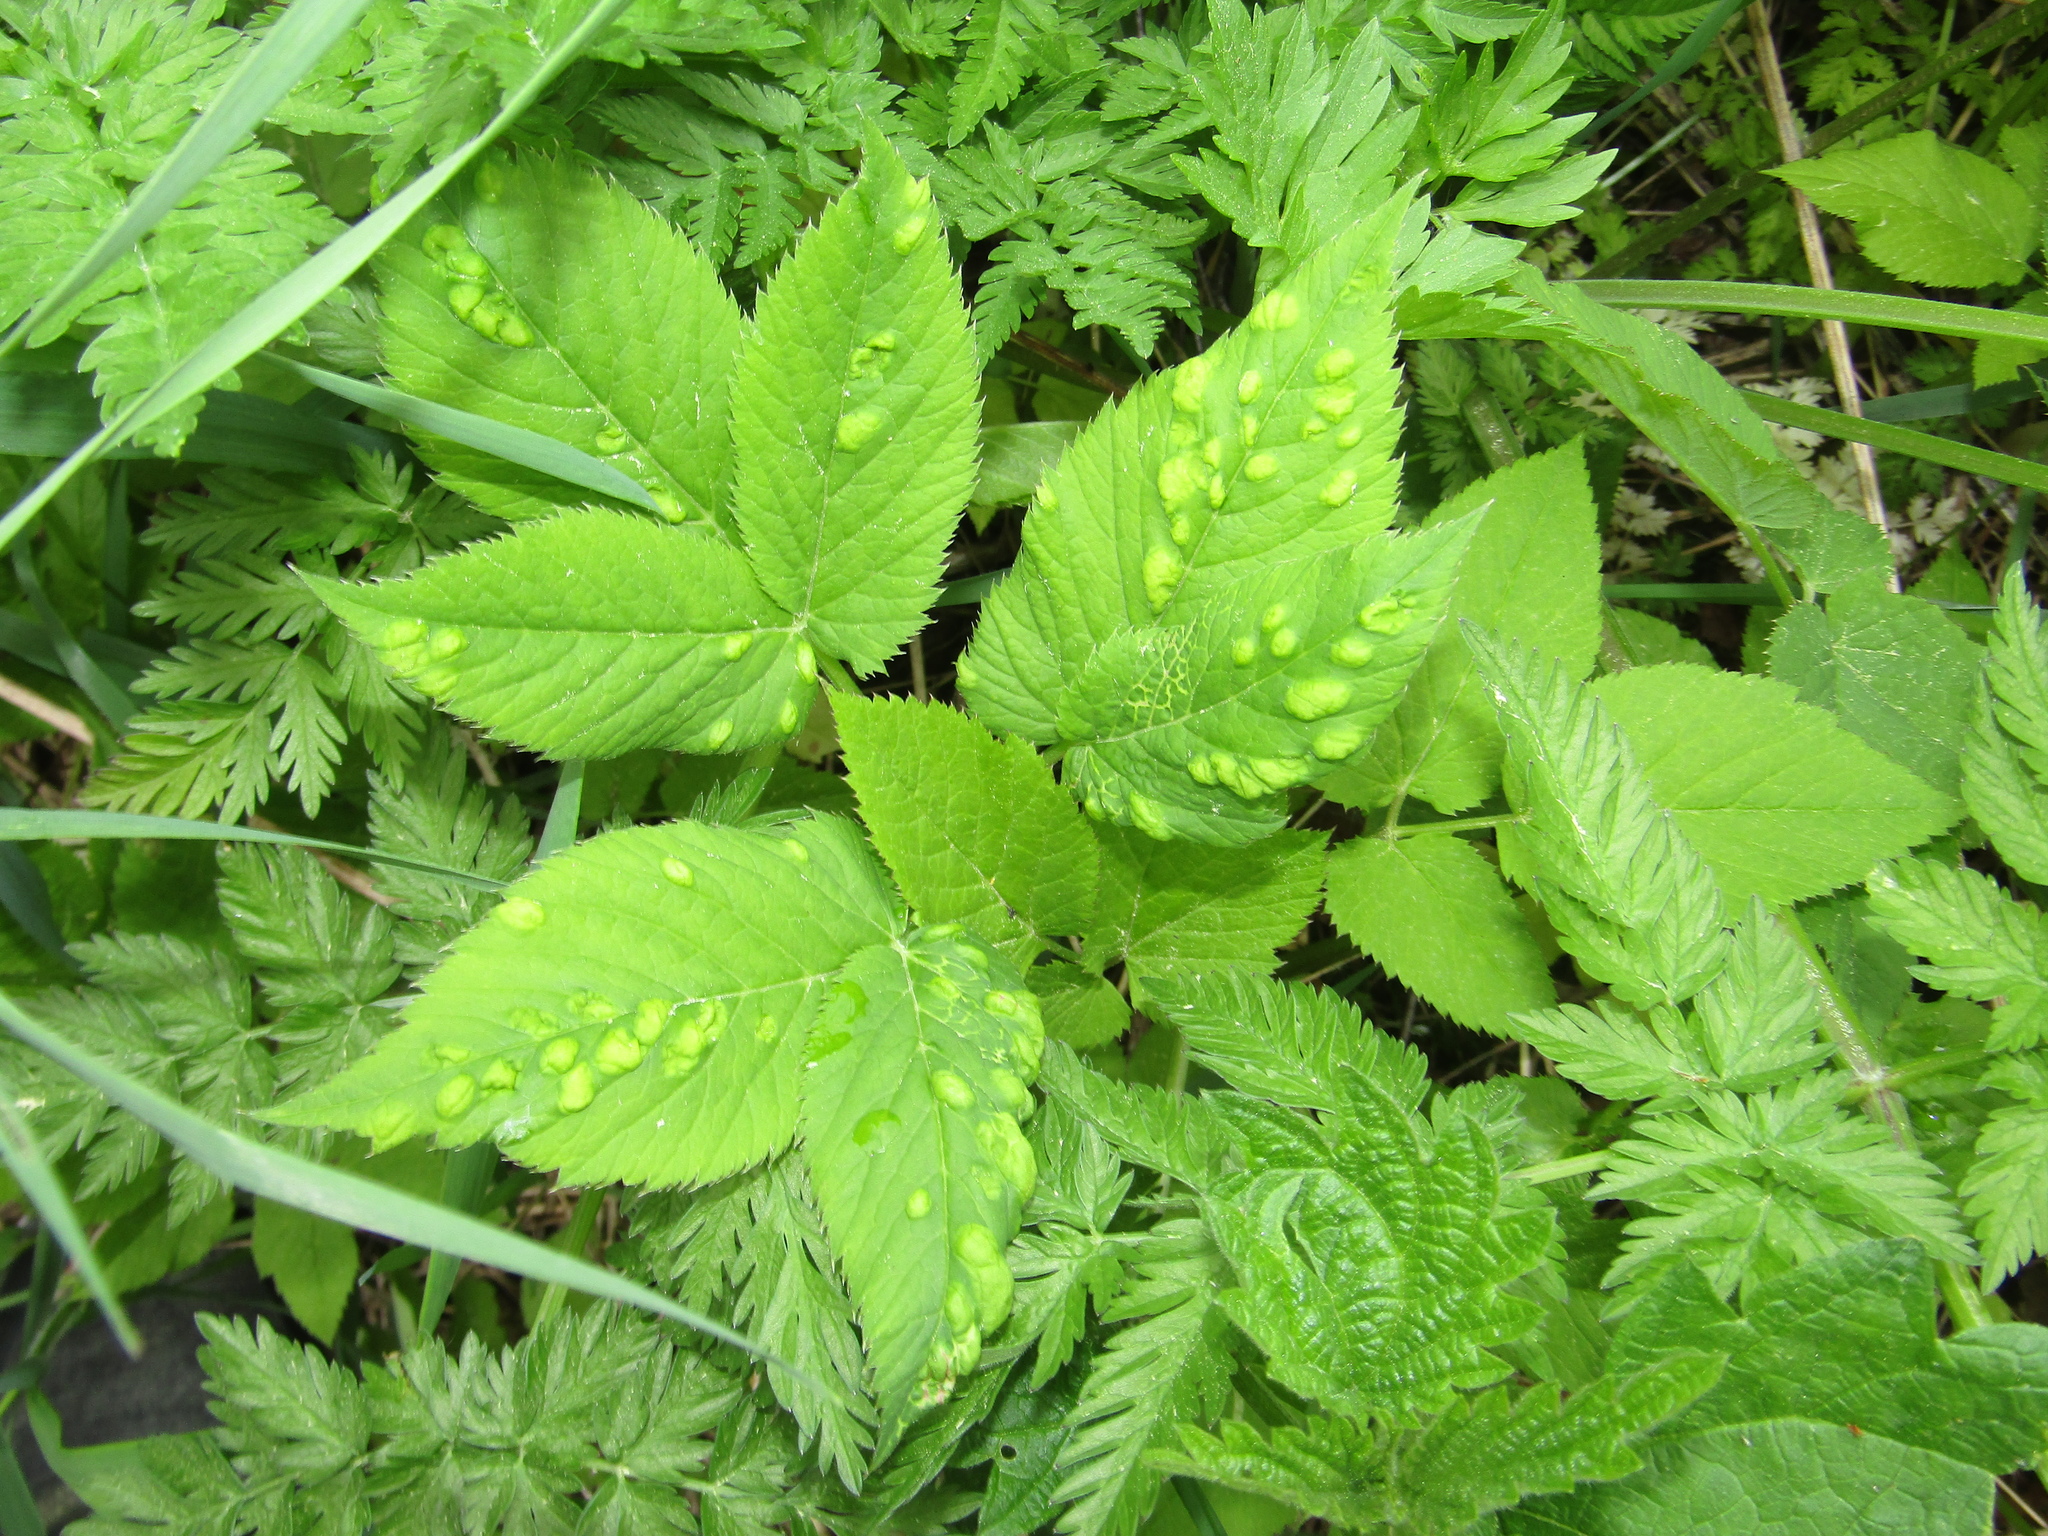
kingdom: Plantae
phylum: Tracheophyta
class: Magnoliopsida
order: Apiales
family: Apiaceae
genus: Aegopodium
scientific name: Aegopodium podagraria
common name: Ground-elder
